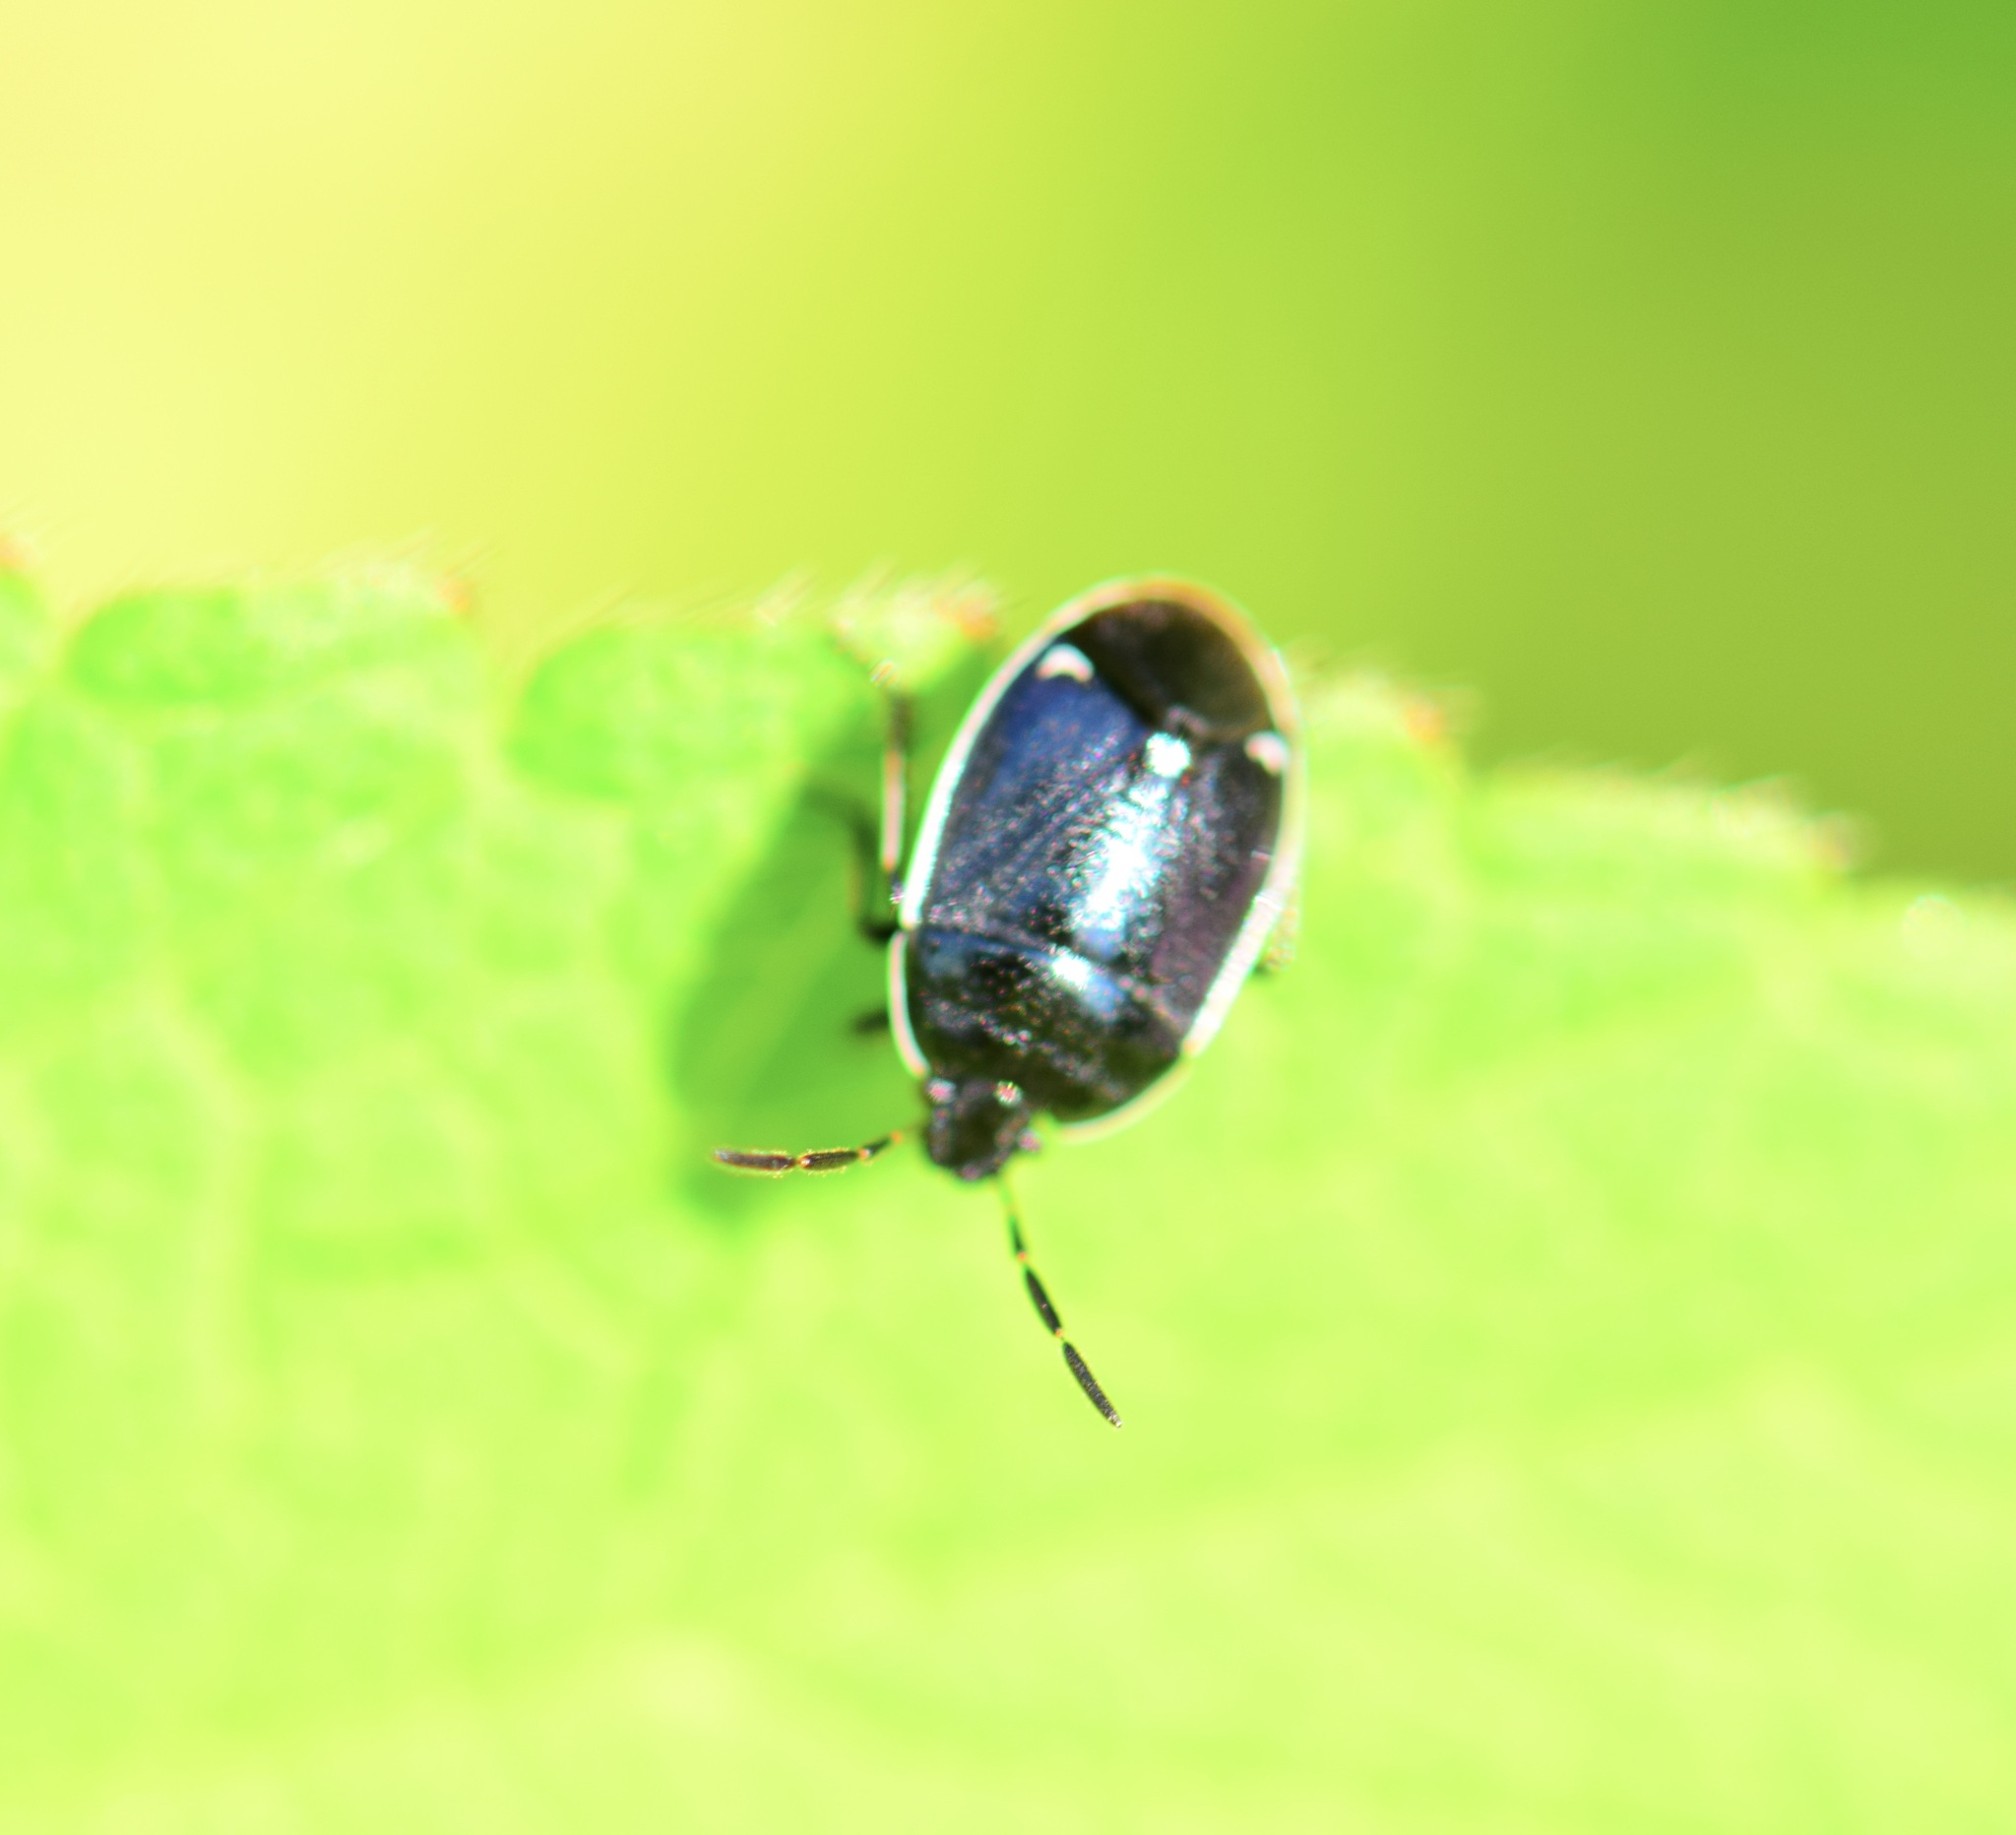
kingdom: Animalia
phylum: Arthropoda
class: Insecta
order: Hemiptera
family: Cydnidae
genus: Sehirus
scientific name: Sehirus cinctus
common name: White-margined burrower bug
